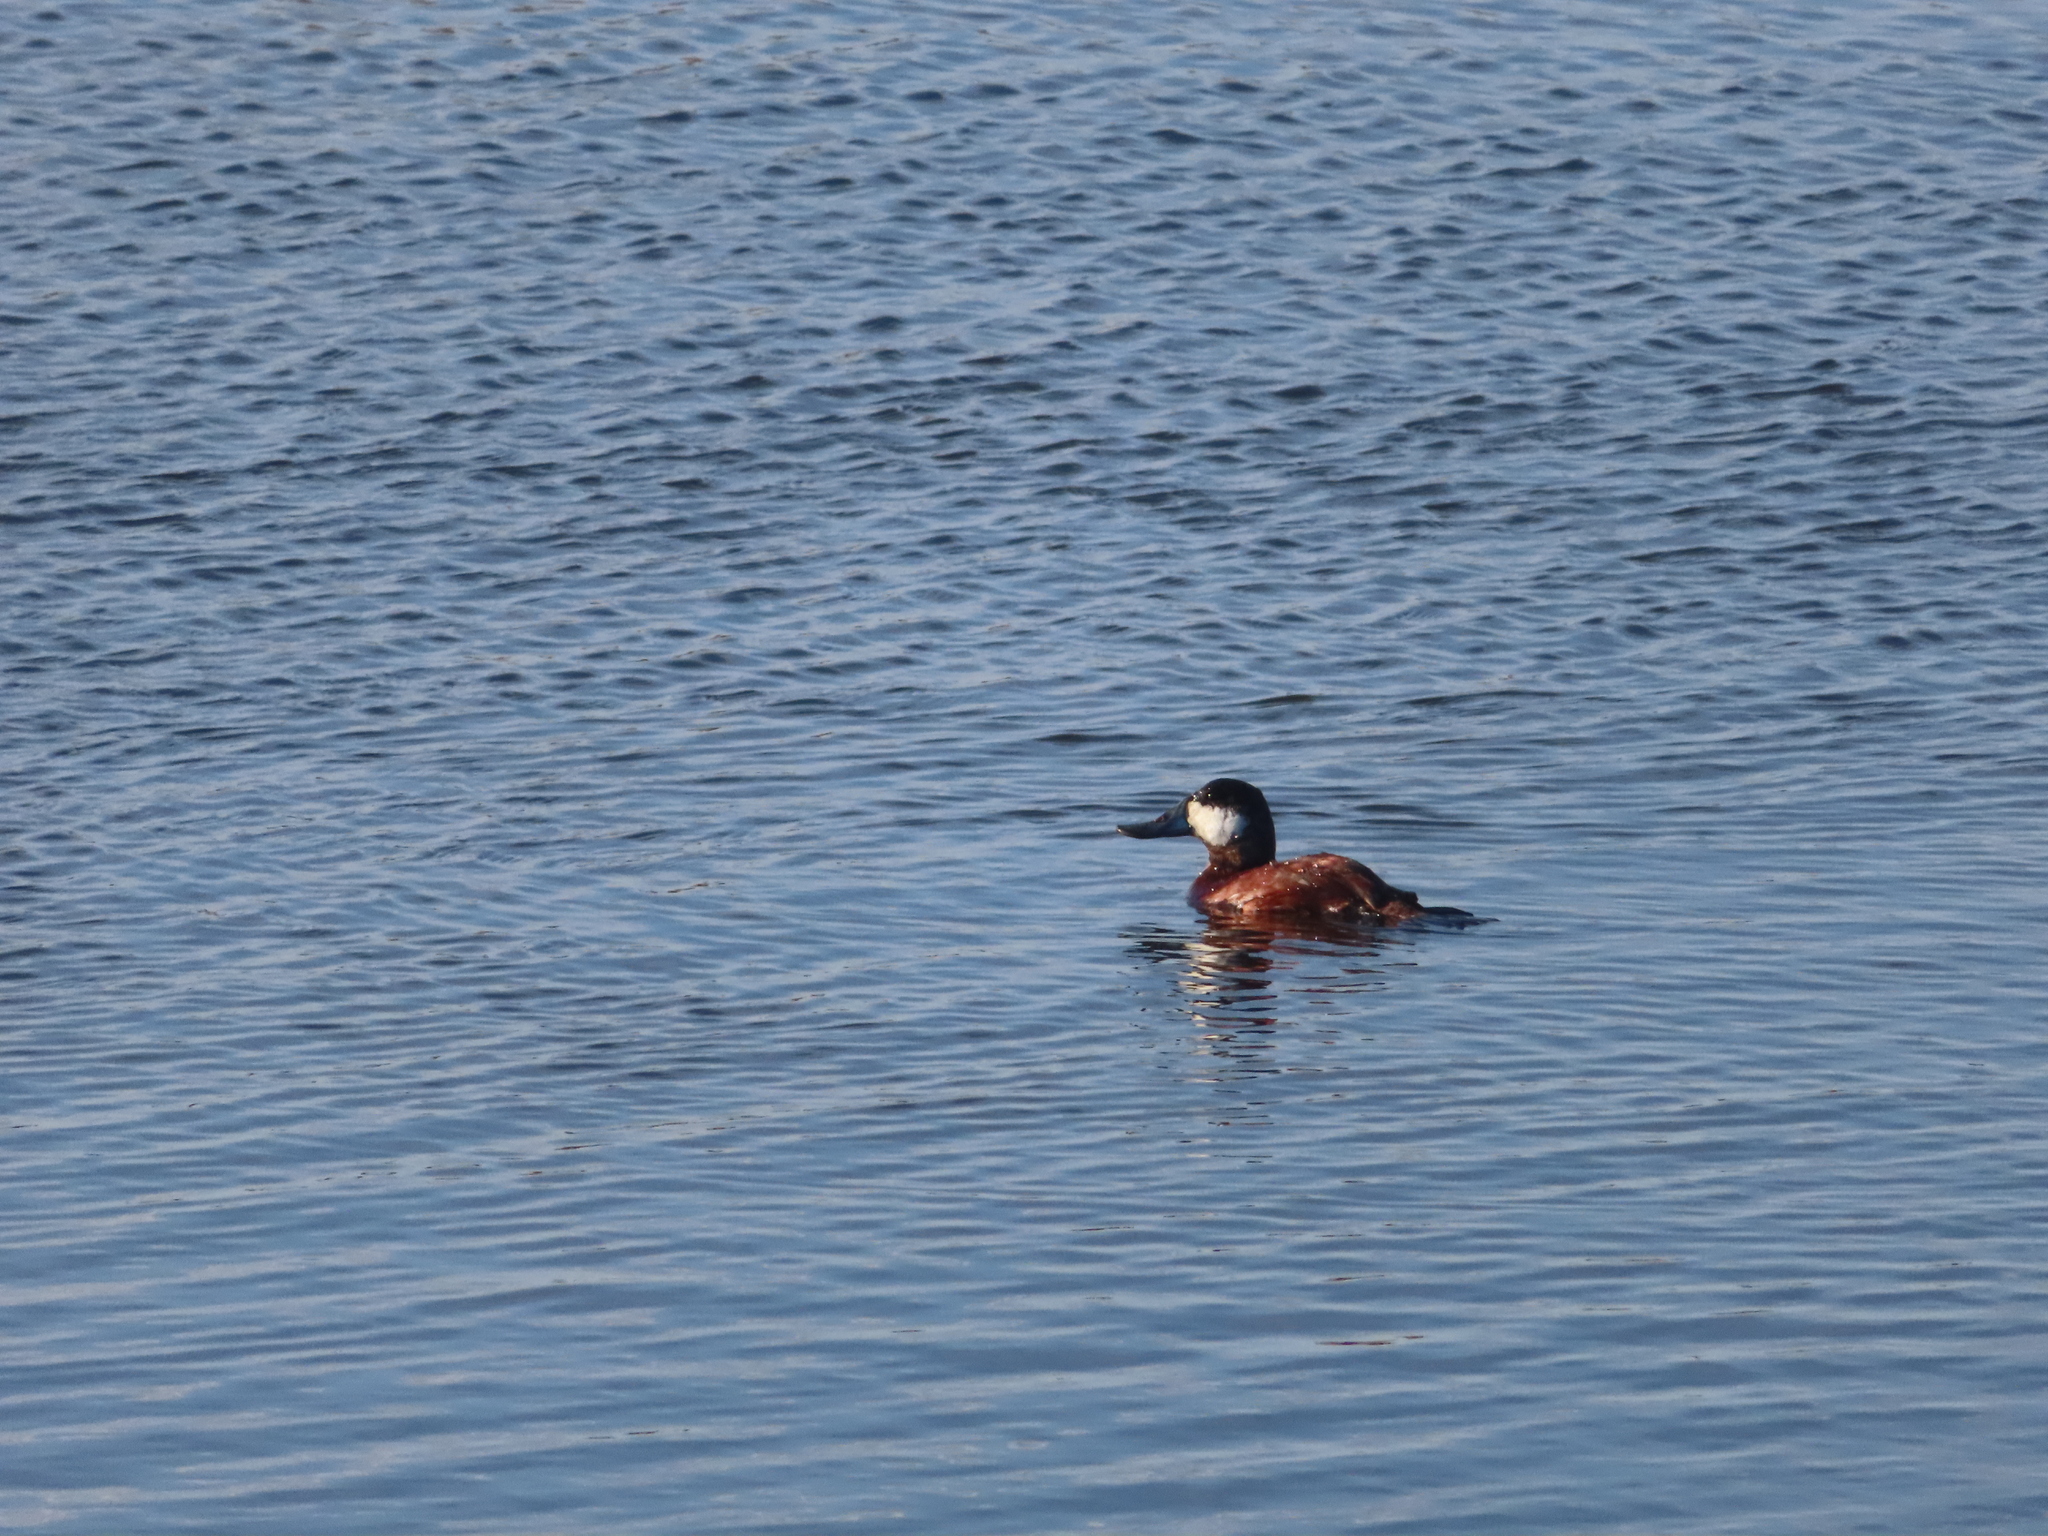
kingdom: Animalia
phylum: Chordata
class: Aves
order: Anseriformes
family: Anatidae
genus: Oxyura
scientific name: Oxyura jamaicensis
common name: Ruddy duck
